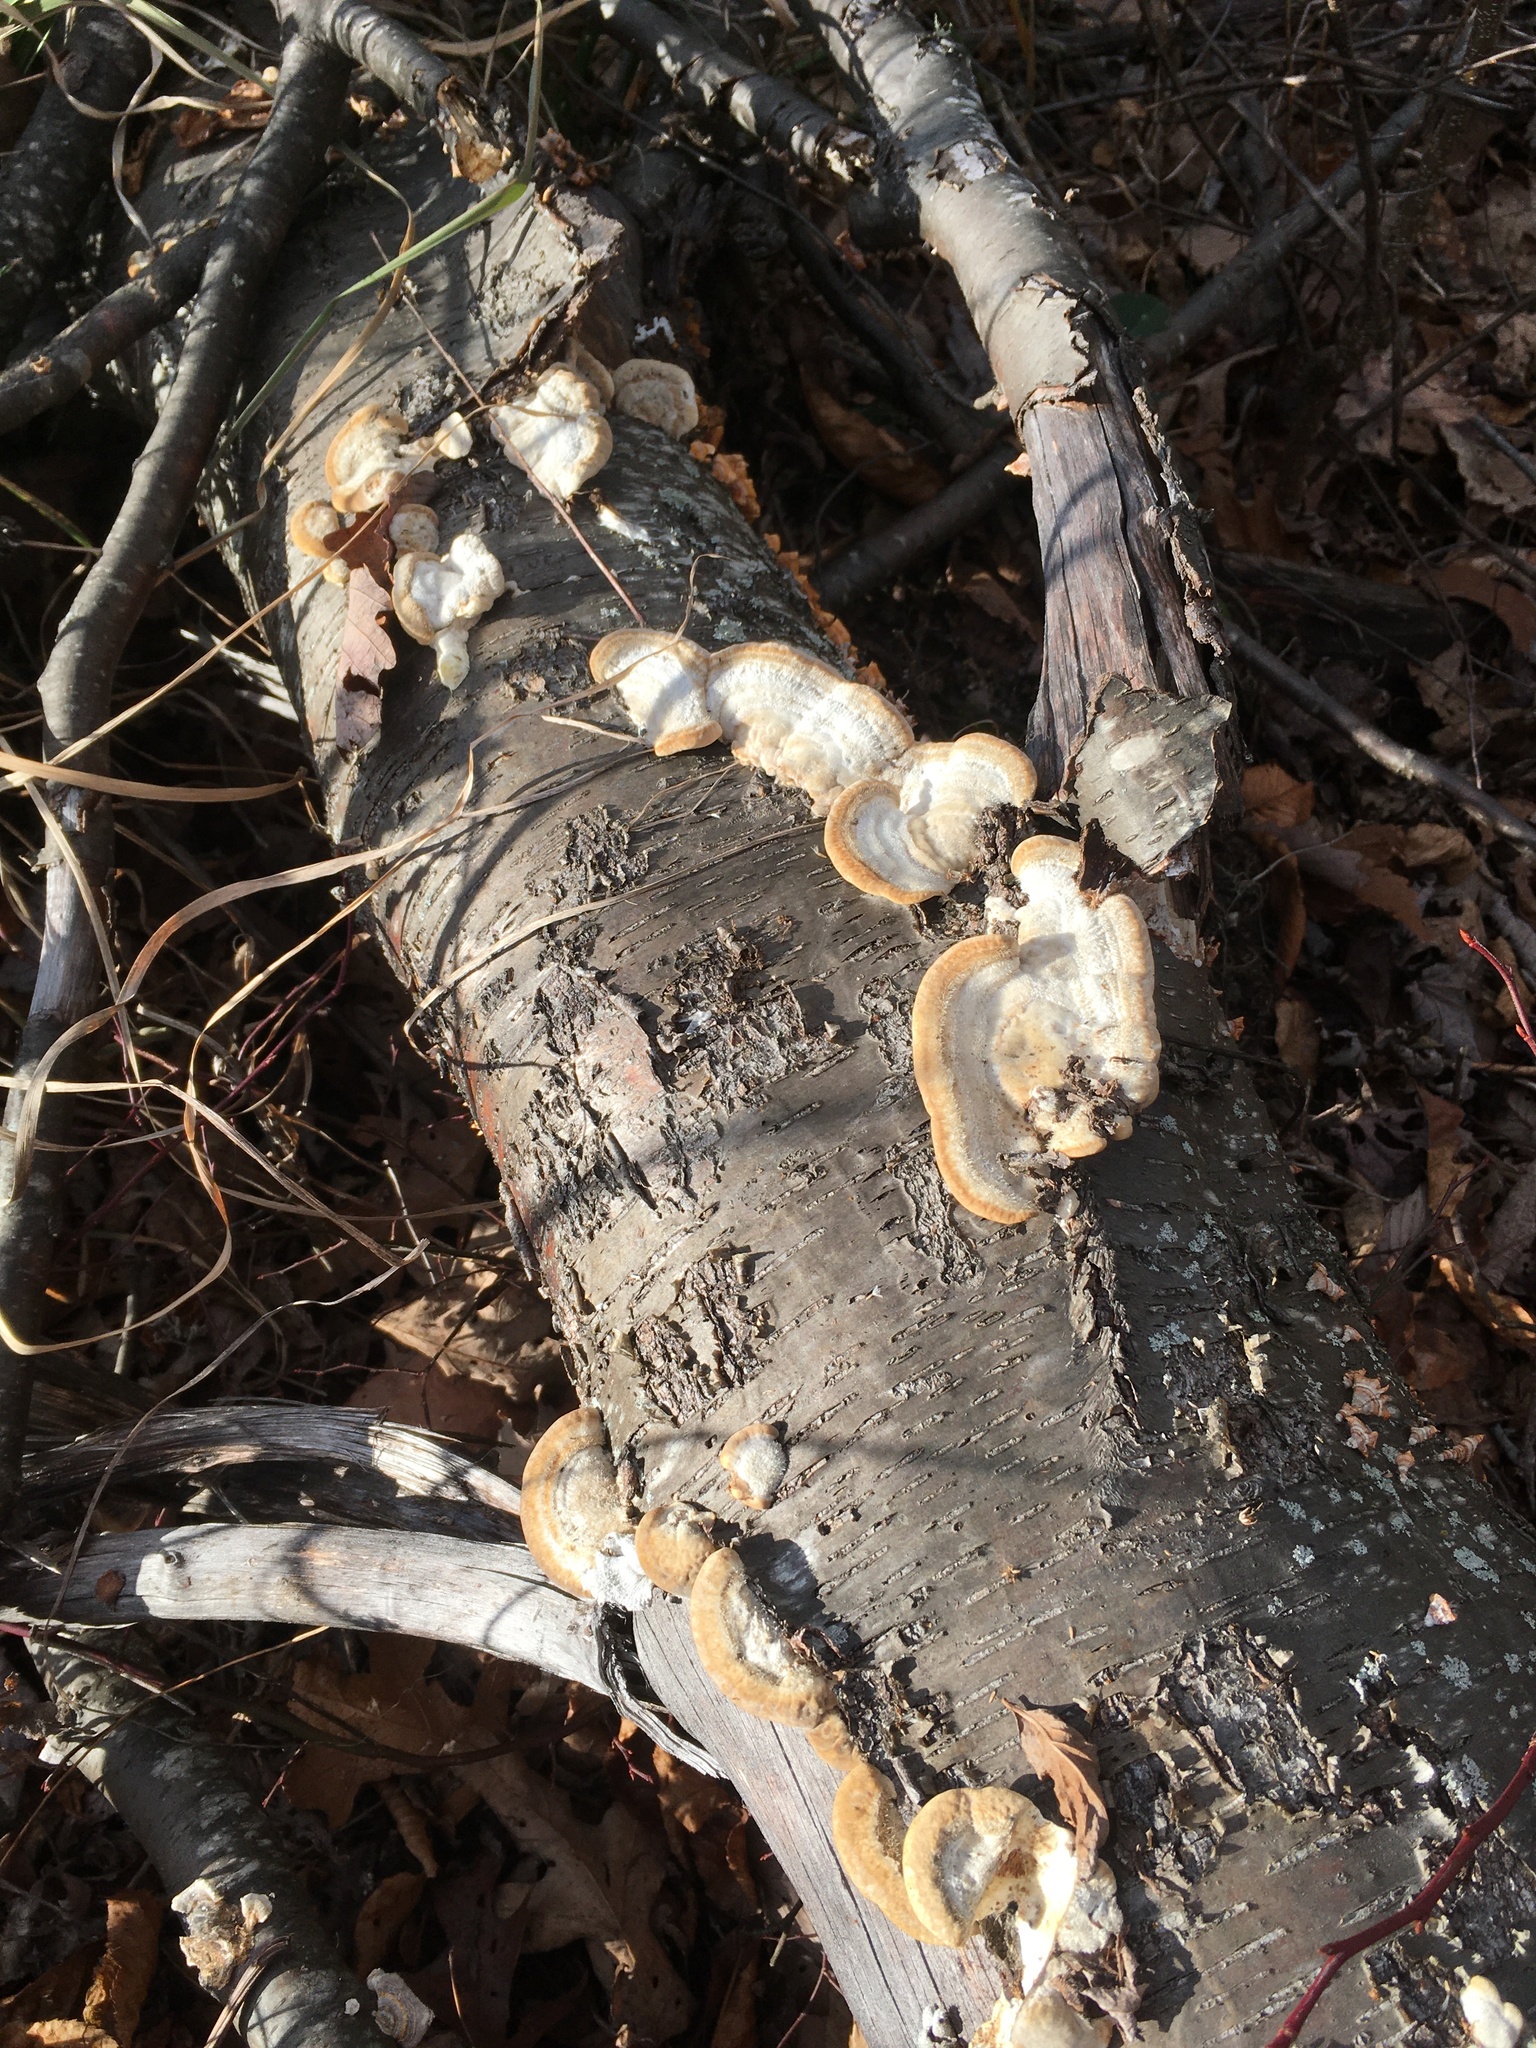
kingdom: Fungi
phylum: Basidiomycota
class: Agaricomycetes
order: Polyporales
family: Polyporaceae
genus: Trametes
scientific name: Trametes hirsuta
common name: Hairy bracket
